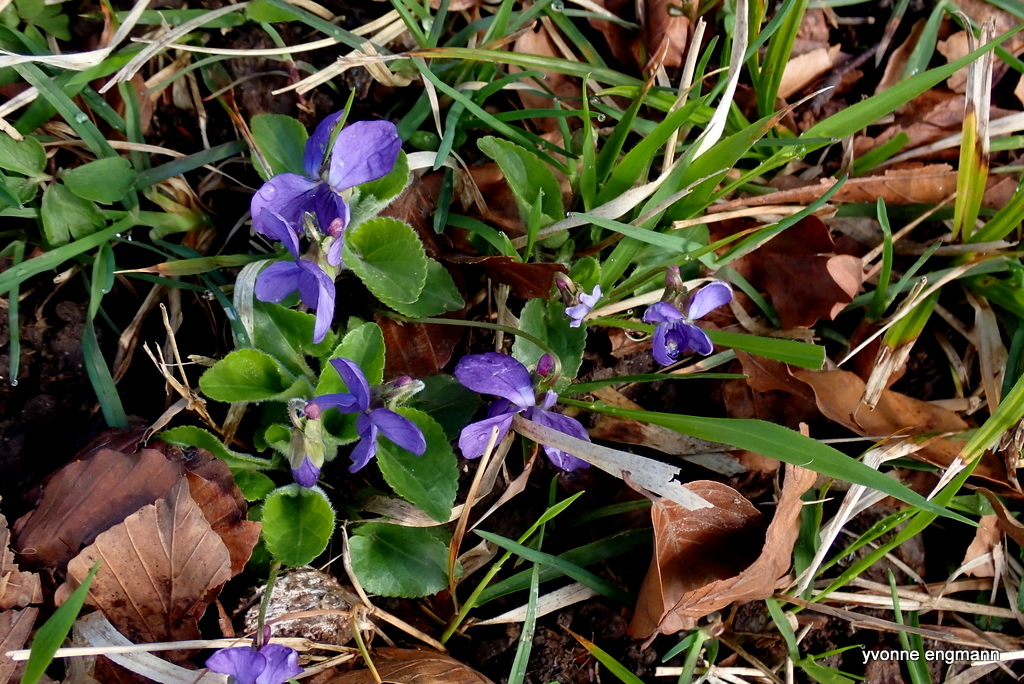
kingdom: Plantae
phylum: Tracheophyta
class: Magnoliopsida
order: Malpighiales
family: Violaceae
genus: Viola
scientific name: Viola hirta
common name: Hairy violet
